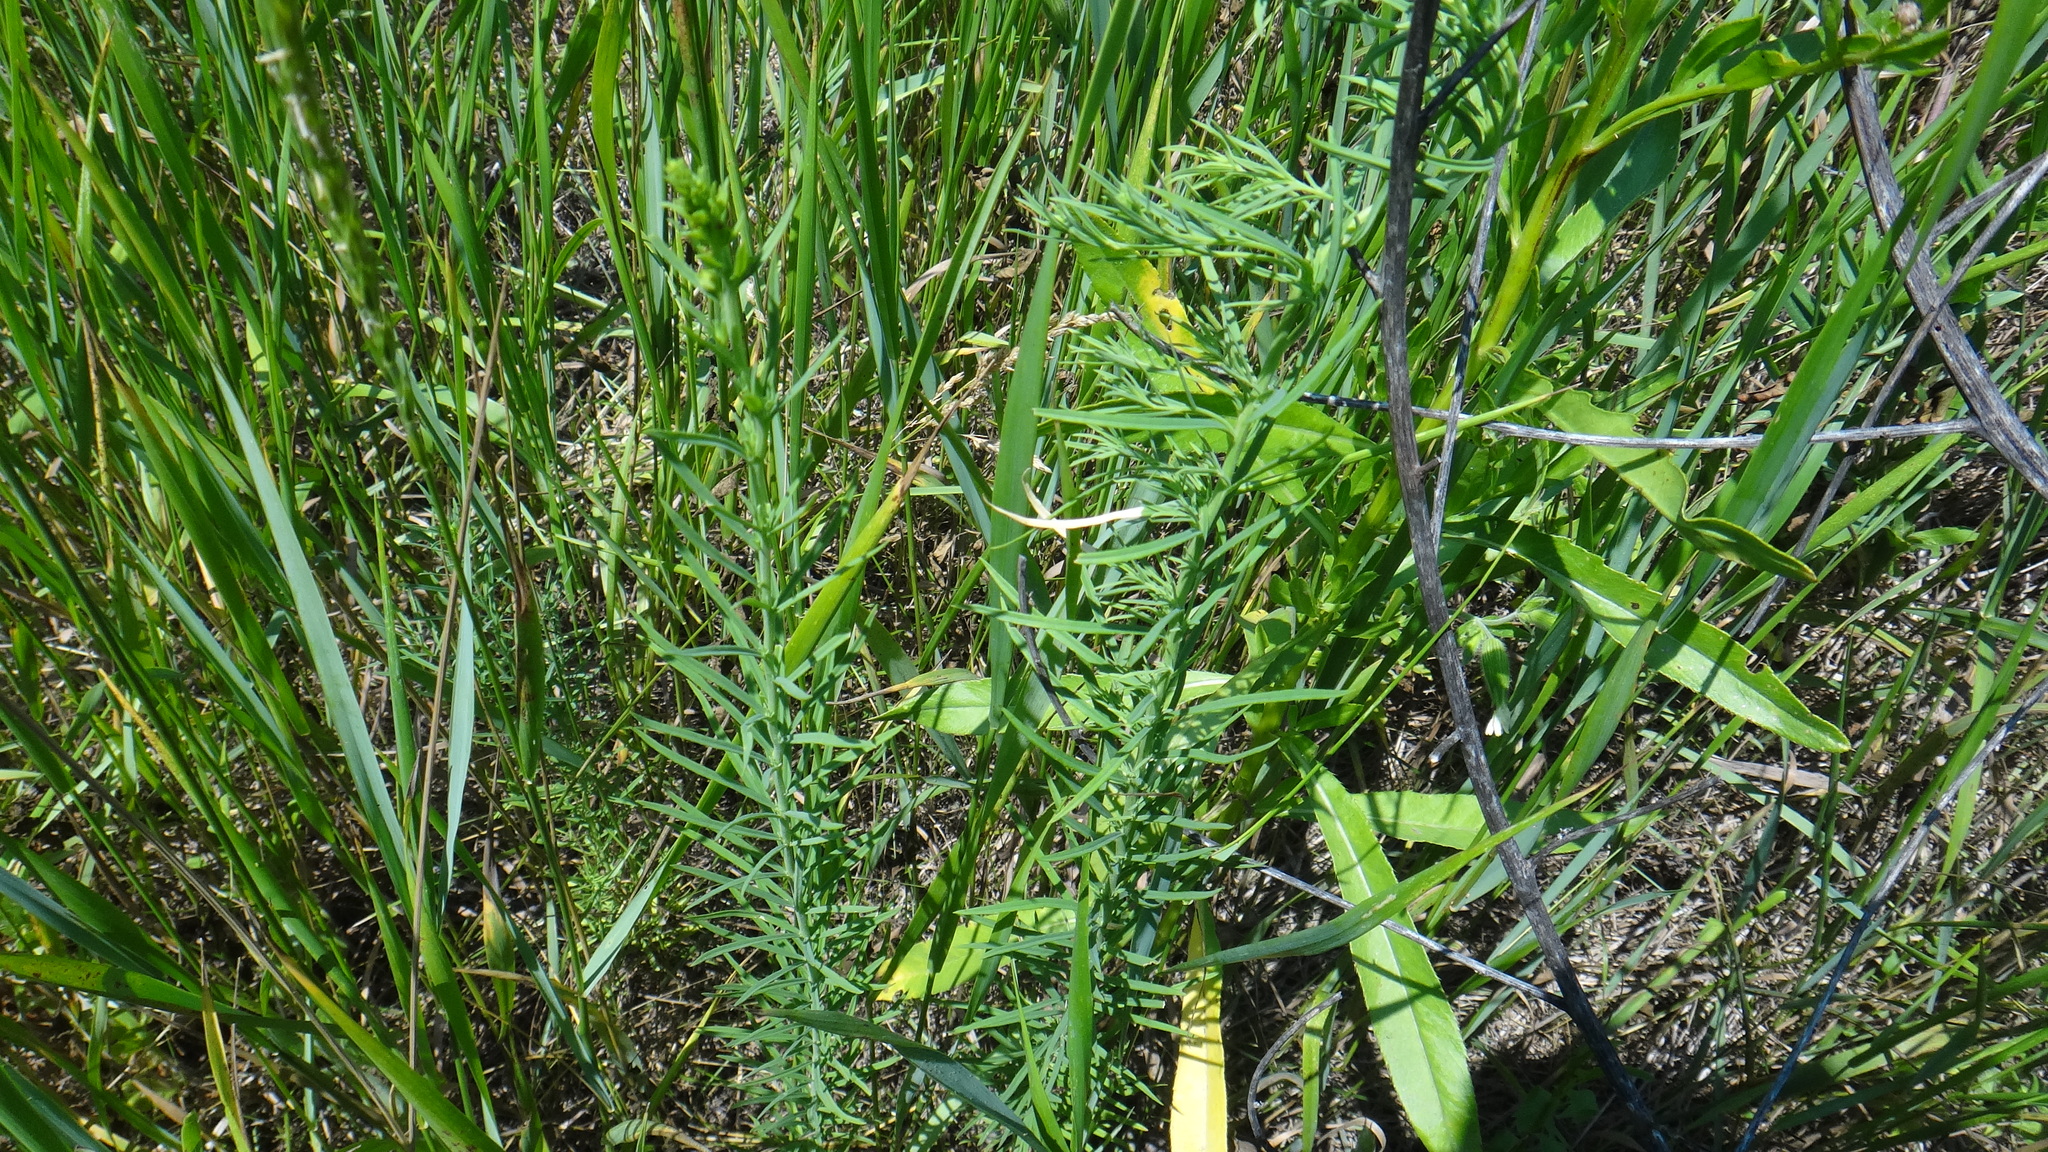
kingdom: Plantae
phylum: Tracheophyta
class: Magnoliopsida
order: Lamiales
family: Plantaginaceae
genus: Linaria
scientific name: Linaria vulgaris
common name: Butter and eggs
